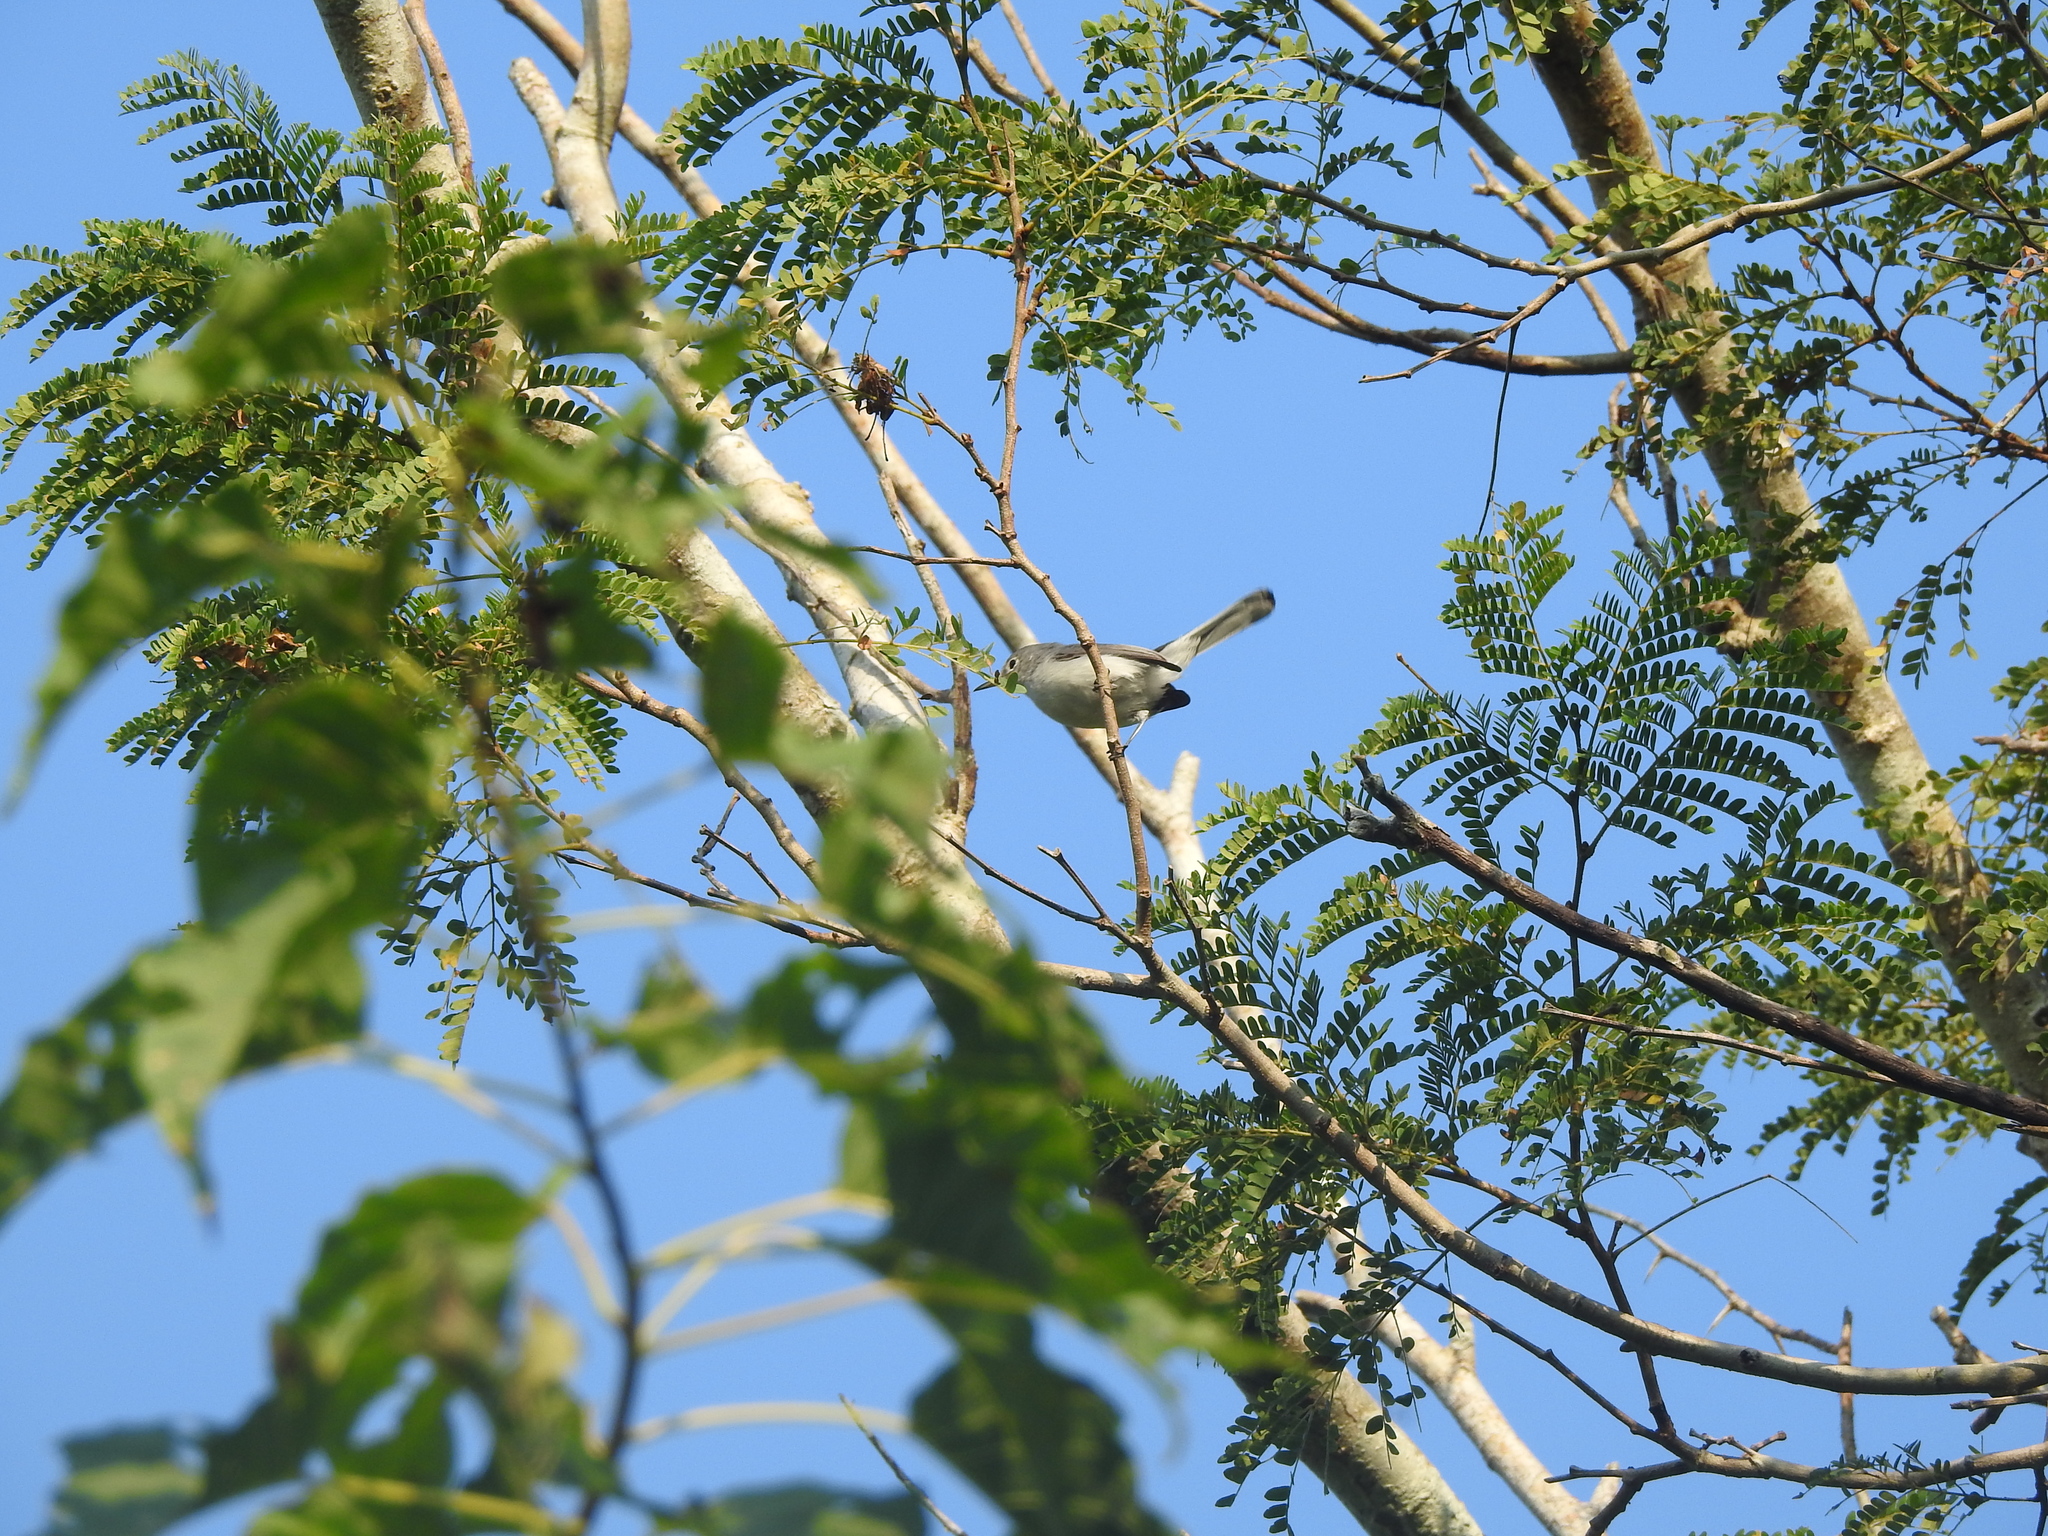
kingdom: Animalia
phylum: Chordata
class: Aves
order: Passeriformes
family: Polioptilidae
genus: Polioptila
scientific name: Polioptila caerulea
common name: Blue-gray gnatcatcher
